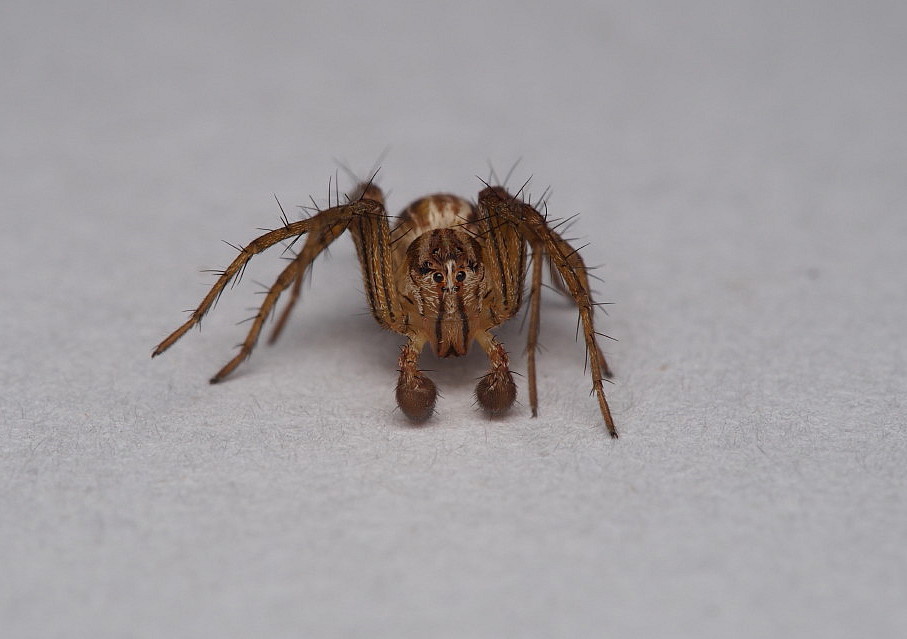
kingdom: Animalia
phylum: Arthropoda
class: Arachnida
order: Araneae
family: Oxyopidae
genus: Oxyopes
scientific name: Oxyopes gracilipes
